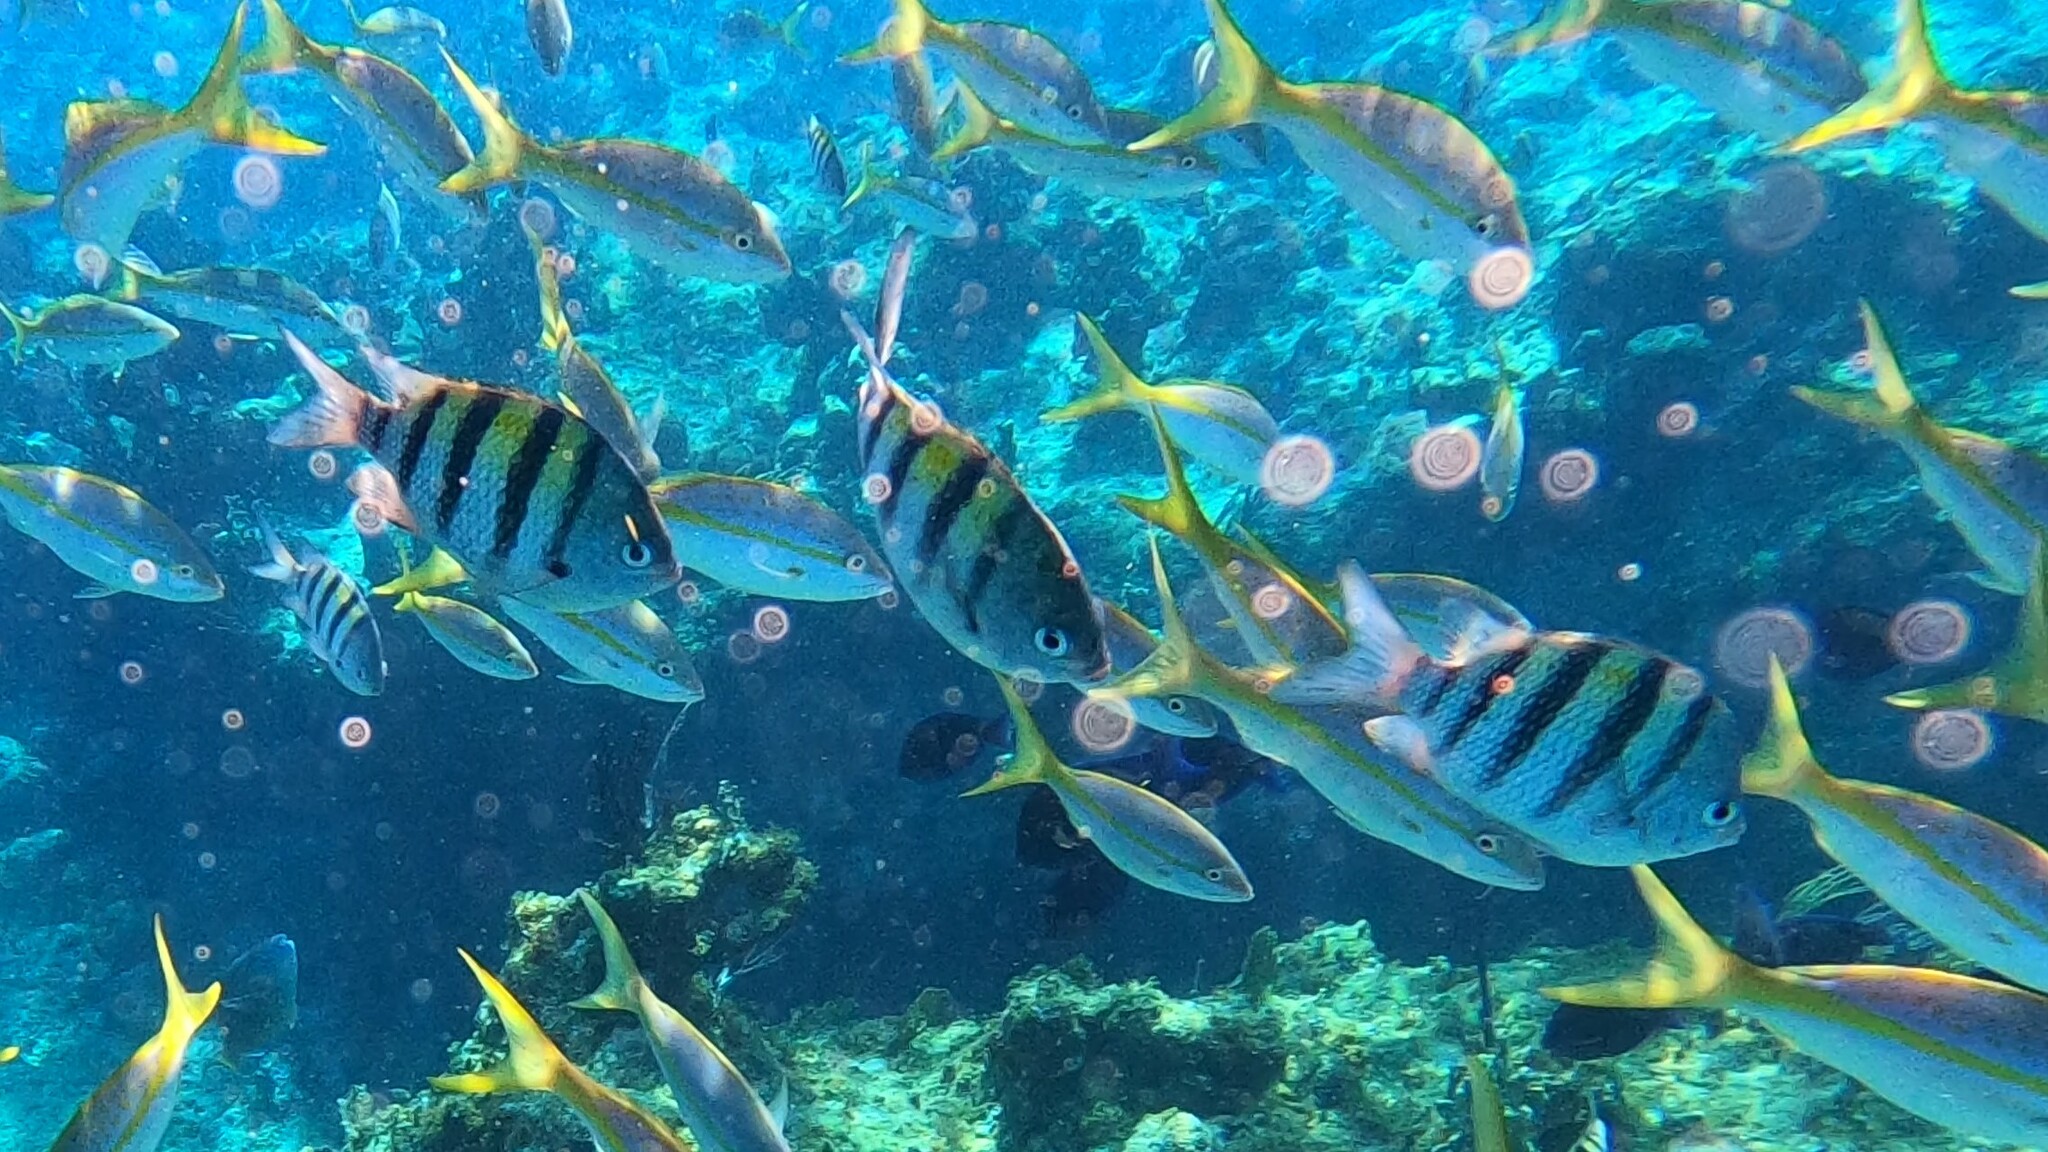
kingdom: Animalia
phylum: Chordata
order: Perciformes
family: Pomacentridae
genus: Abudefduf
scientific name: Abudefduf saxatilis
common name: Sergeant major
